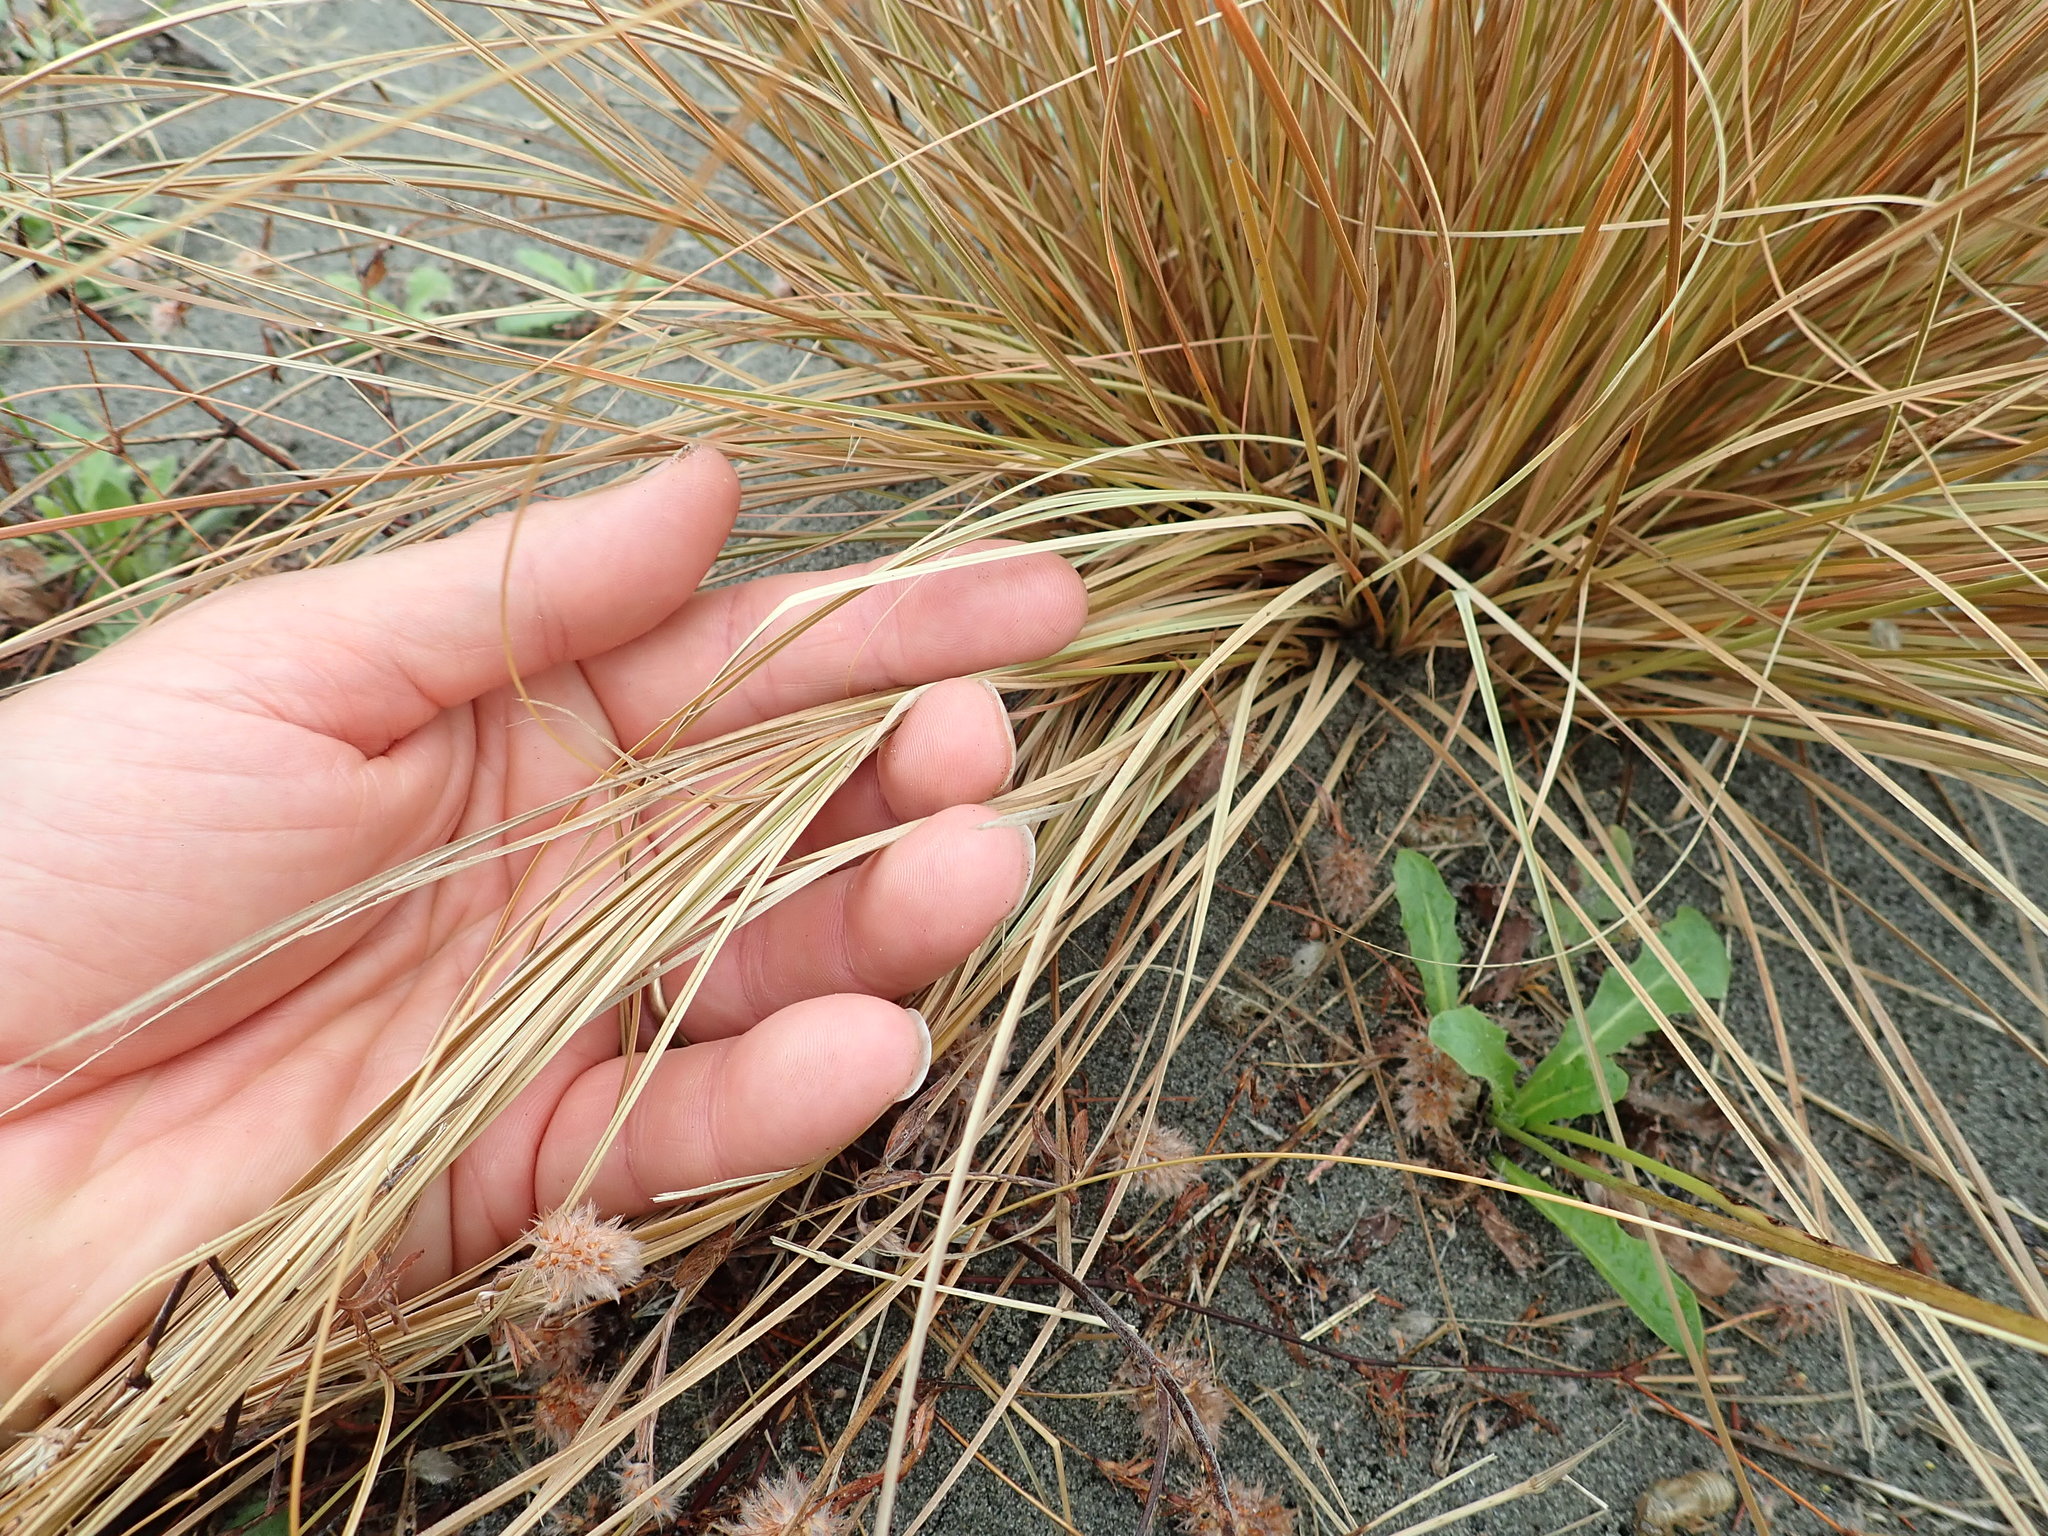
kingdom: Plantae
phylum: Tracheophyta
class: Liliopsida
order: Poales
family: Cyperaceae
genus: Carex
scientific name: Carex testacea
